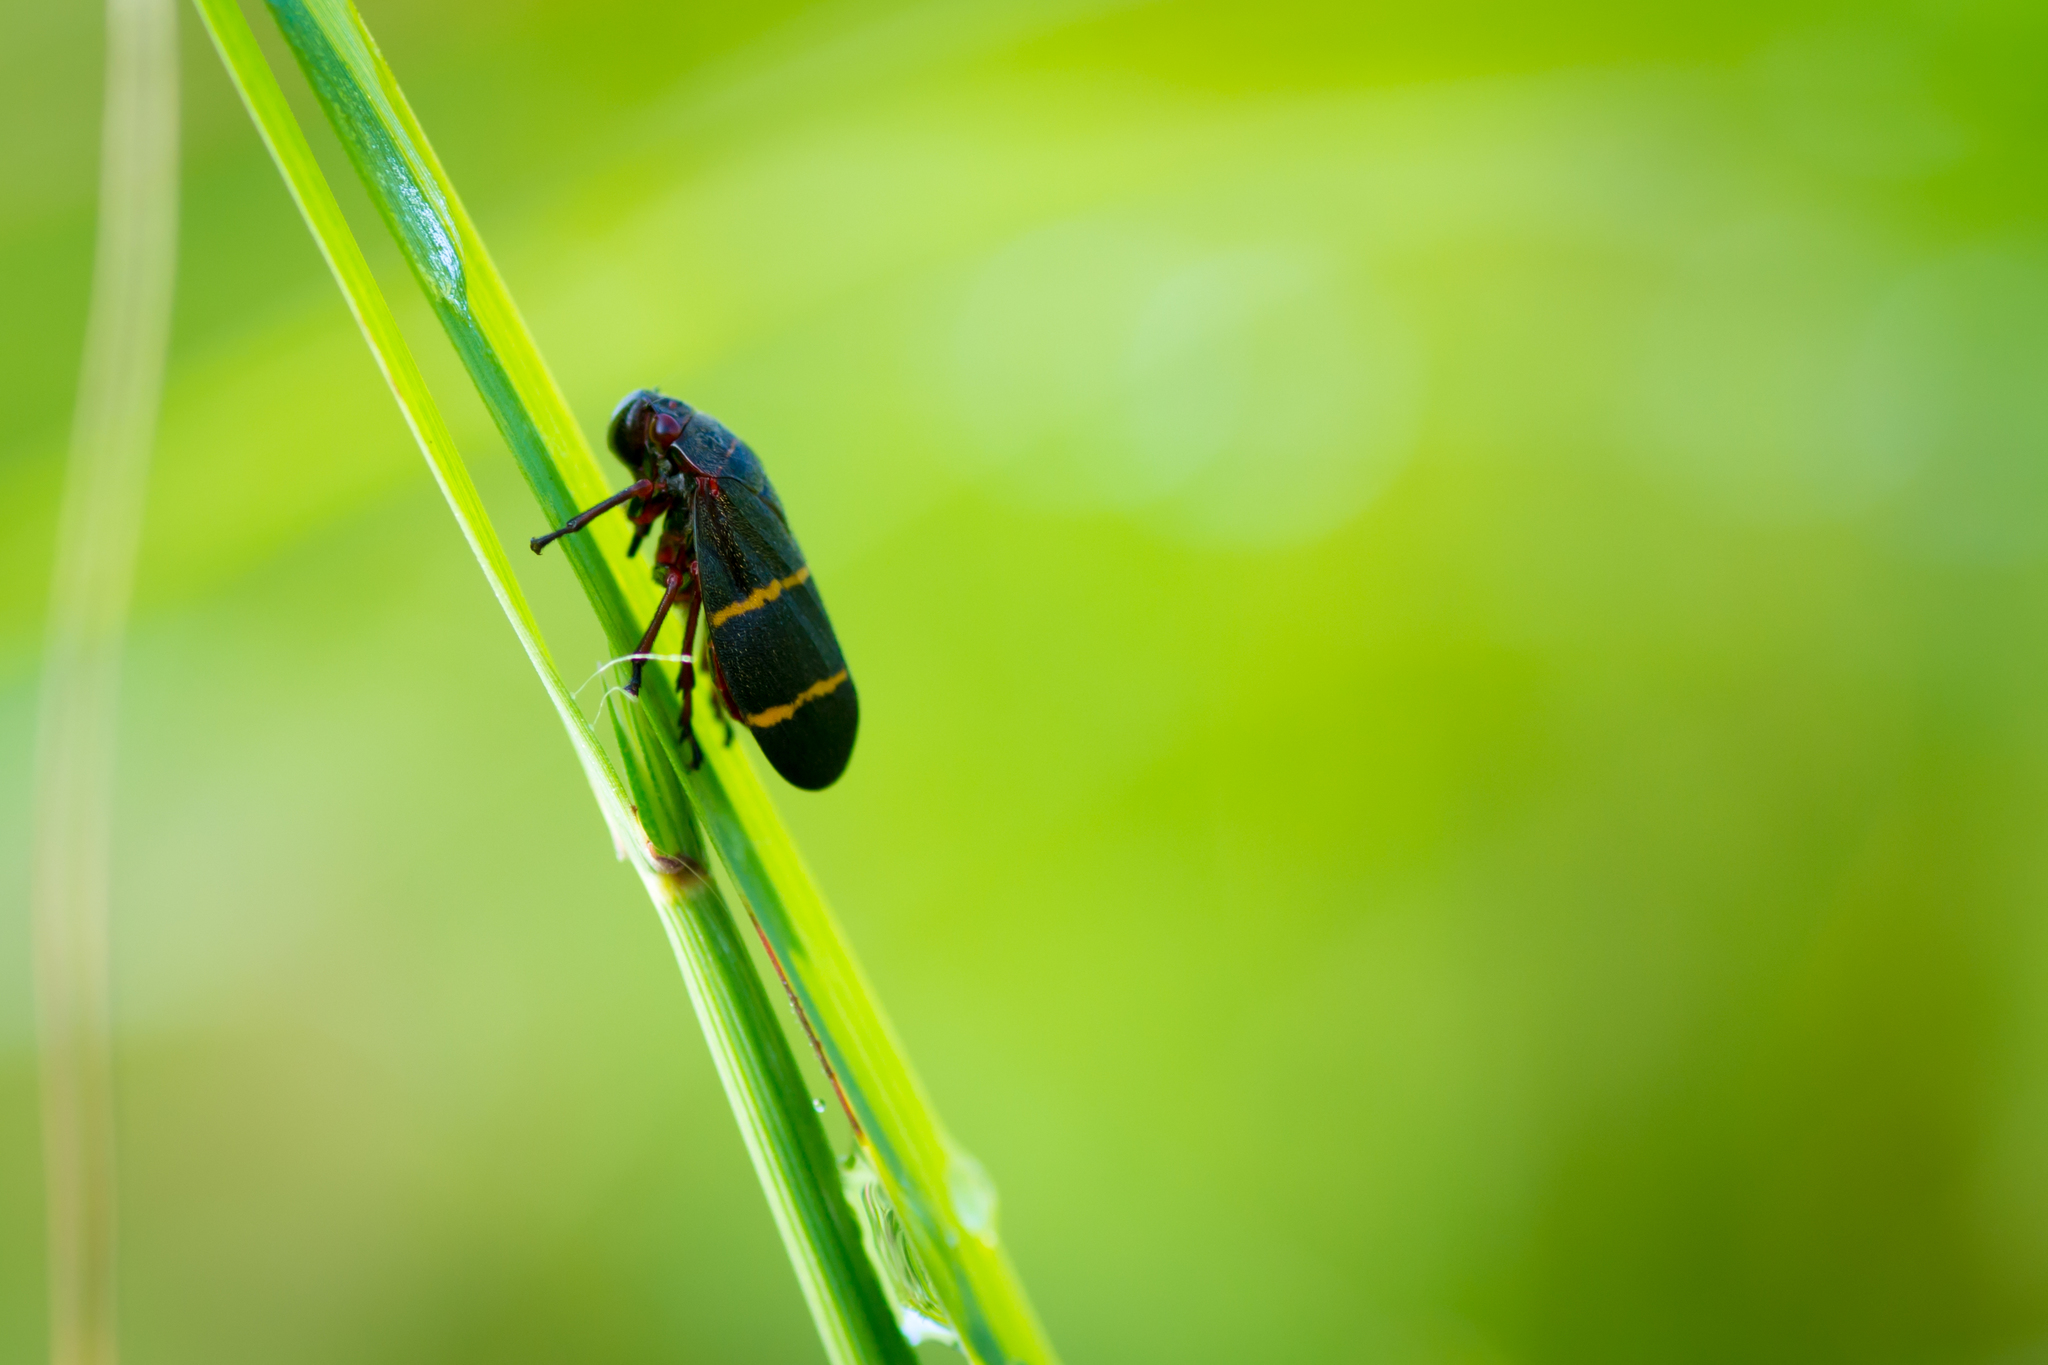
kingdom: Animalia
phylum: Arthropoda
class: Insecta
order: Hemiptera
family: Cercopidae
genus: Prosapia
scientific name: Prosapia bicincta
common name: Twolined spittlebug
